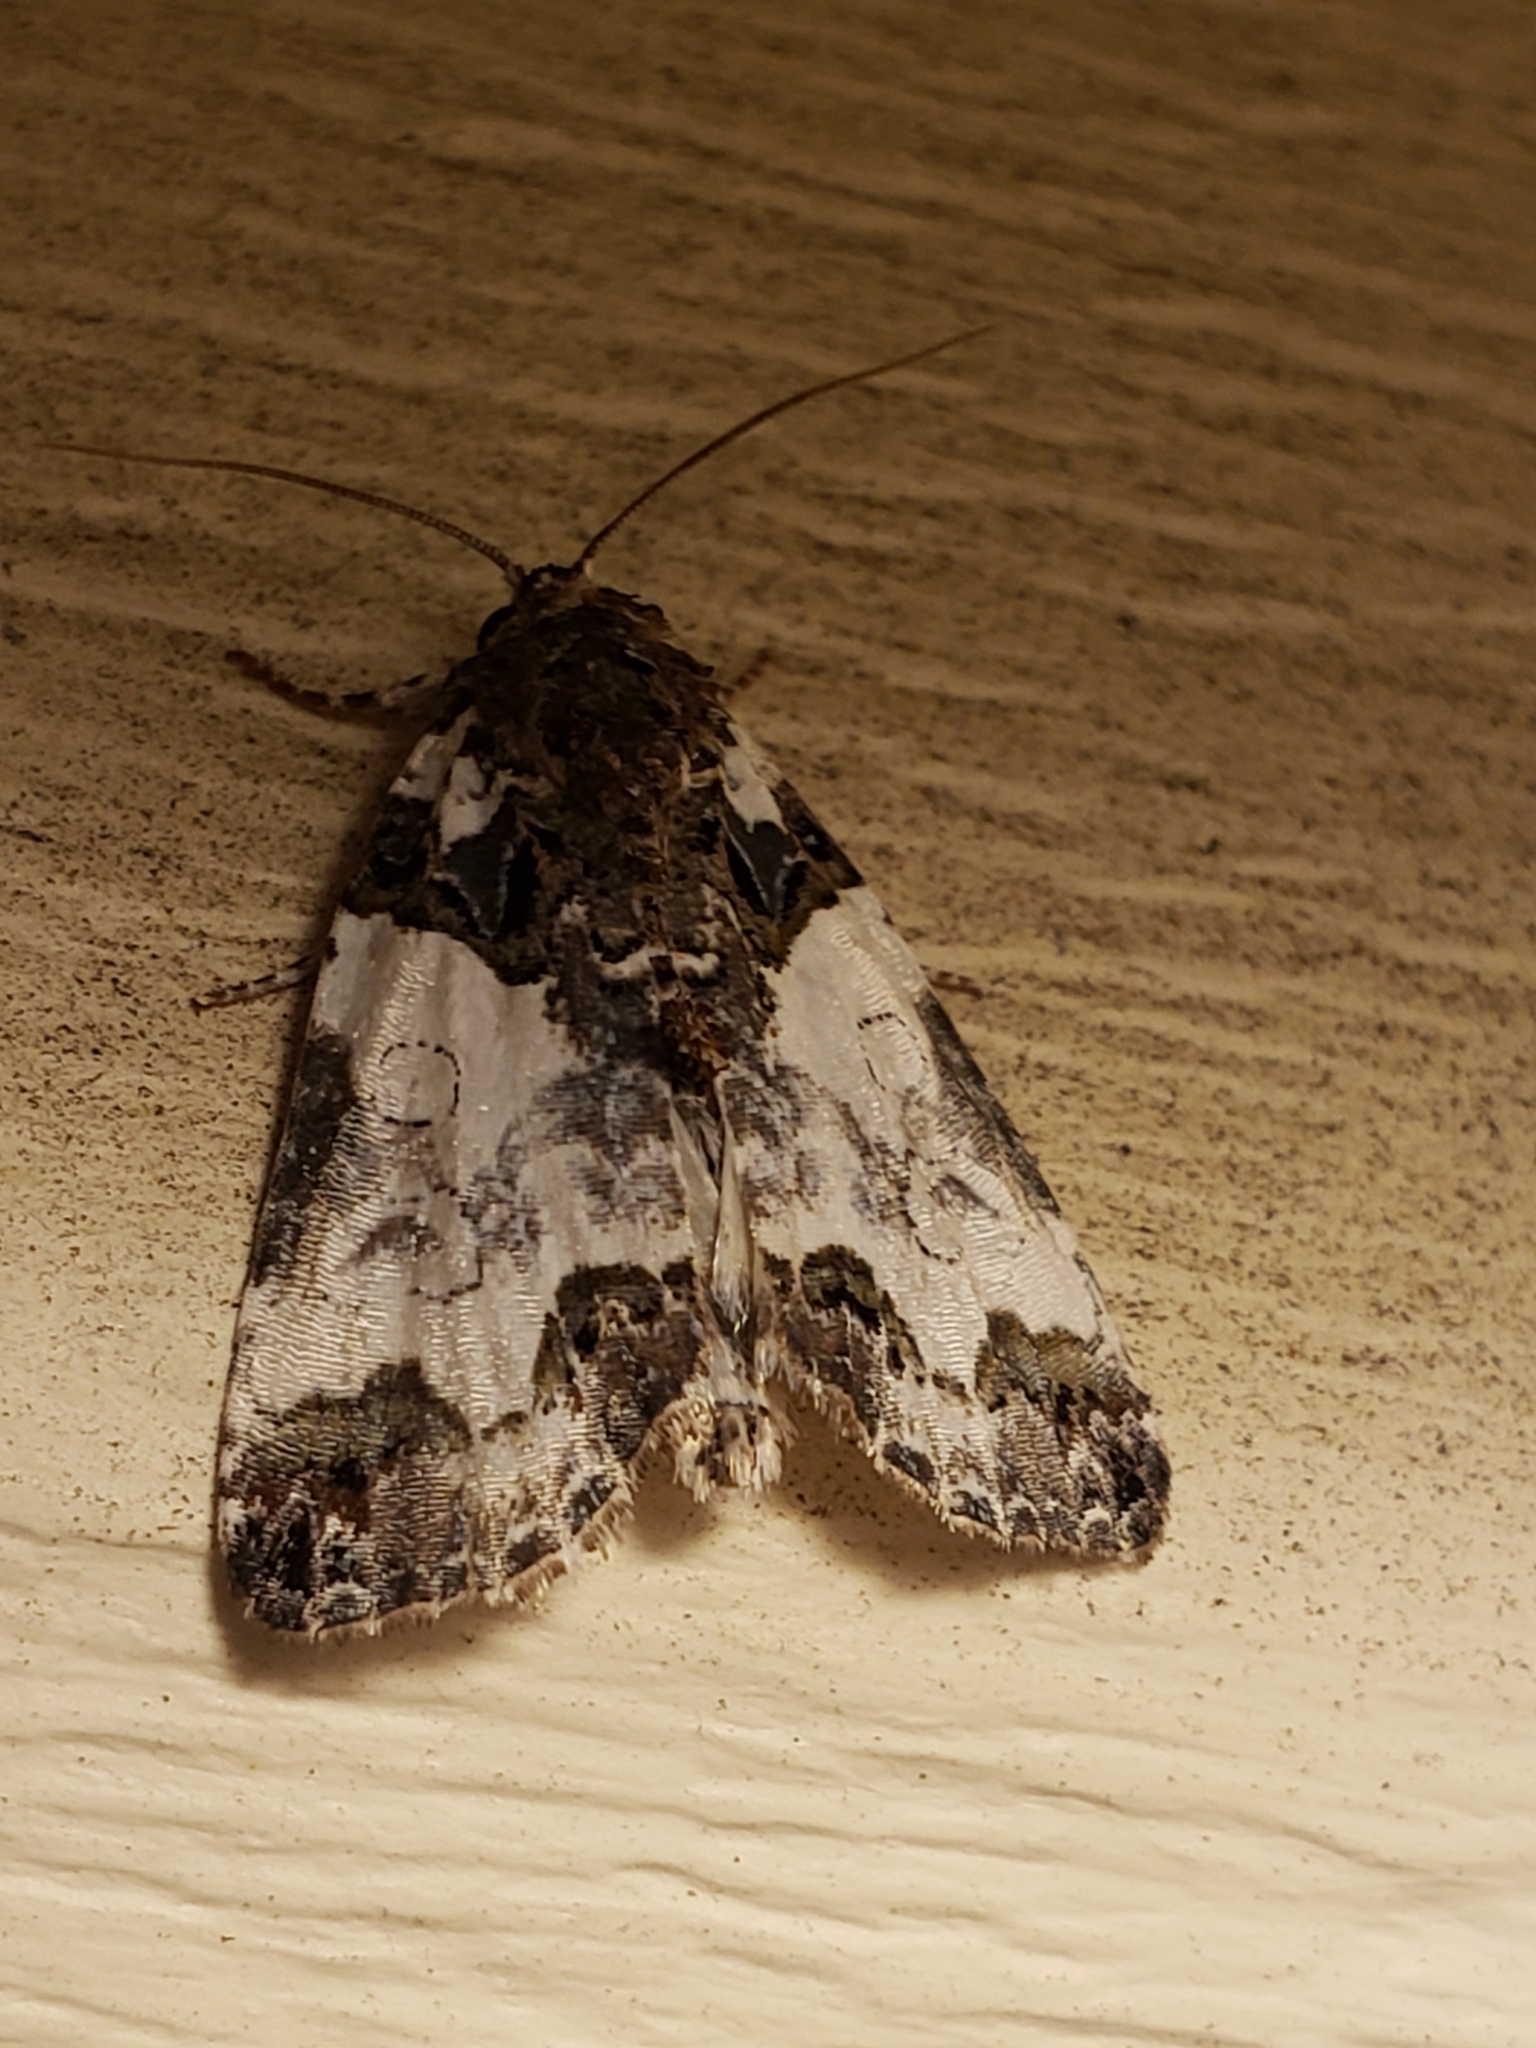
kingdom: Animalia
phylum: Arthropoda
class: Insecta
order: Lepidoptera
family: Noctuidae
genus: Cerma
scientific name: Cerma cerintha
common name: Tufted bird-dropping moth
